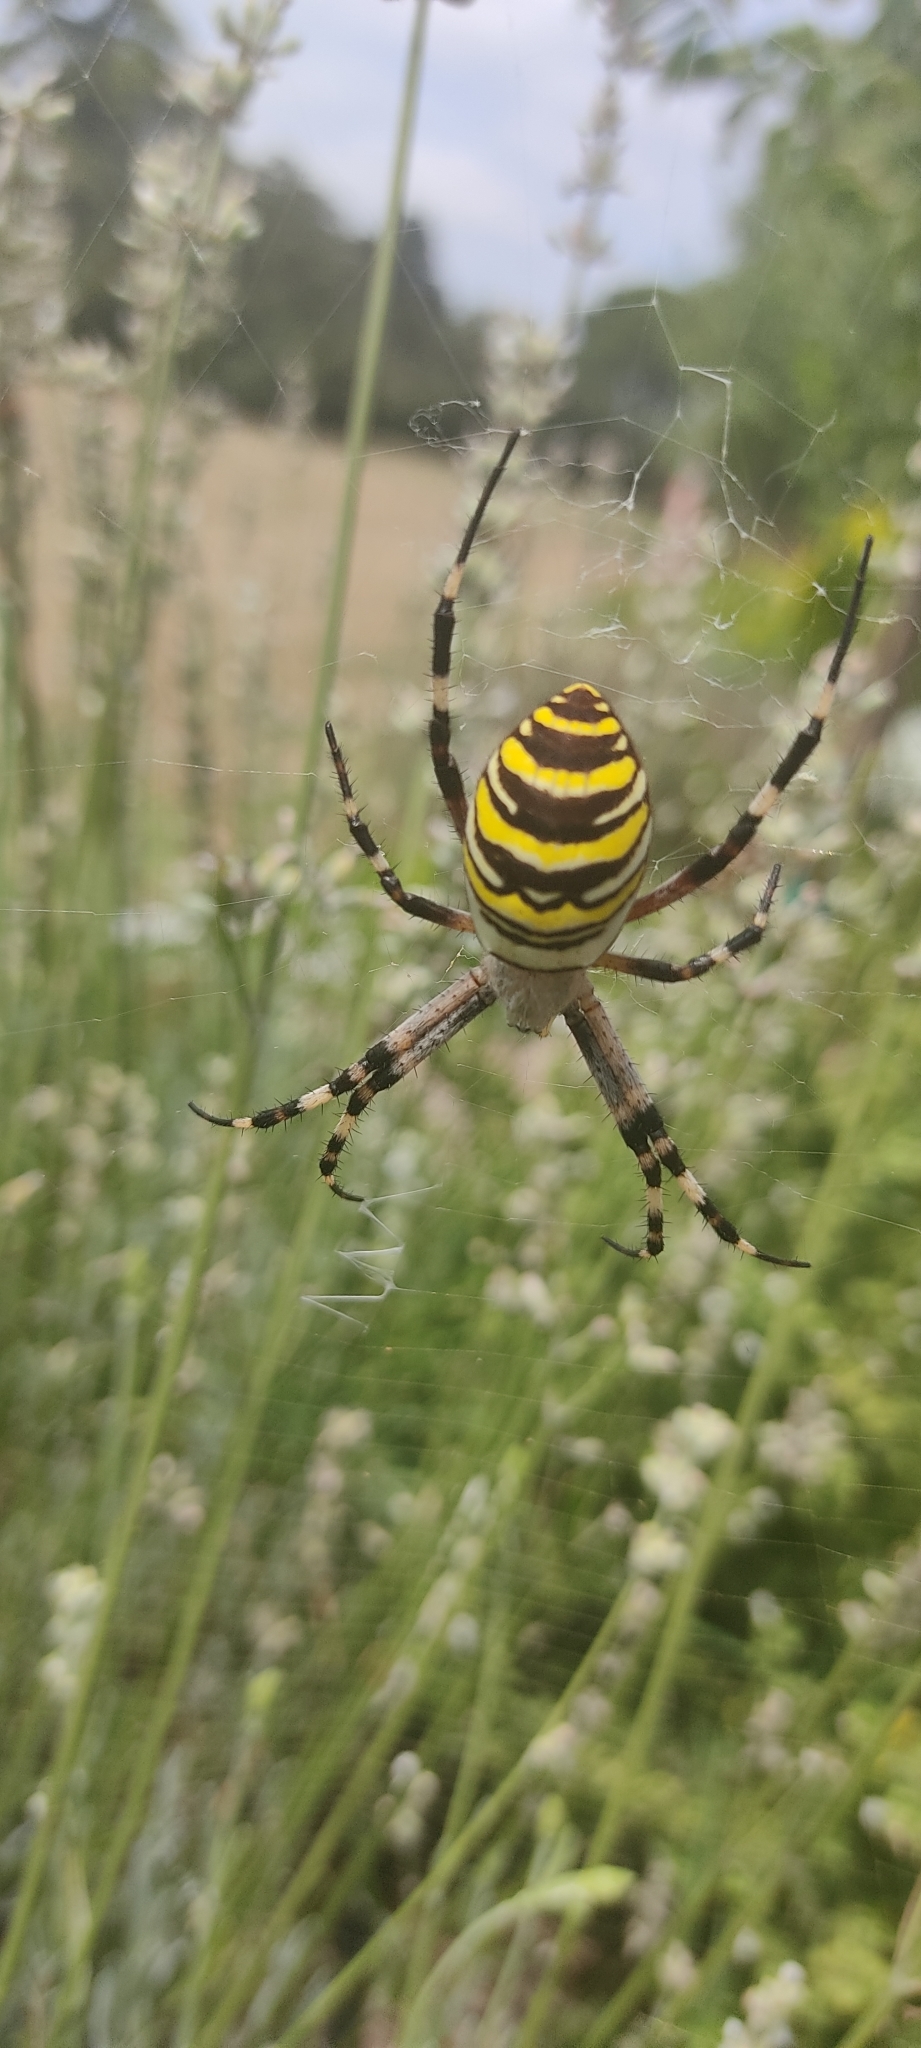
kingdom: Animalia
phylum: Arthropoda
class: Arachnida
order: Araneae
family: Araneidae
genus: Argiope
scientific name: Argiope bruennichi
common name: Wasp spider
